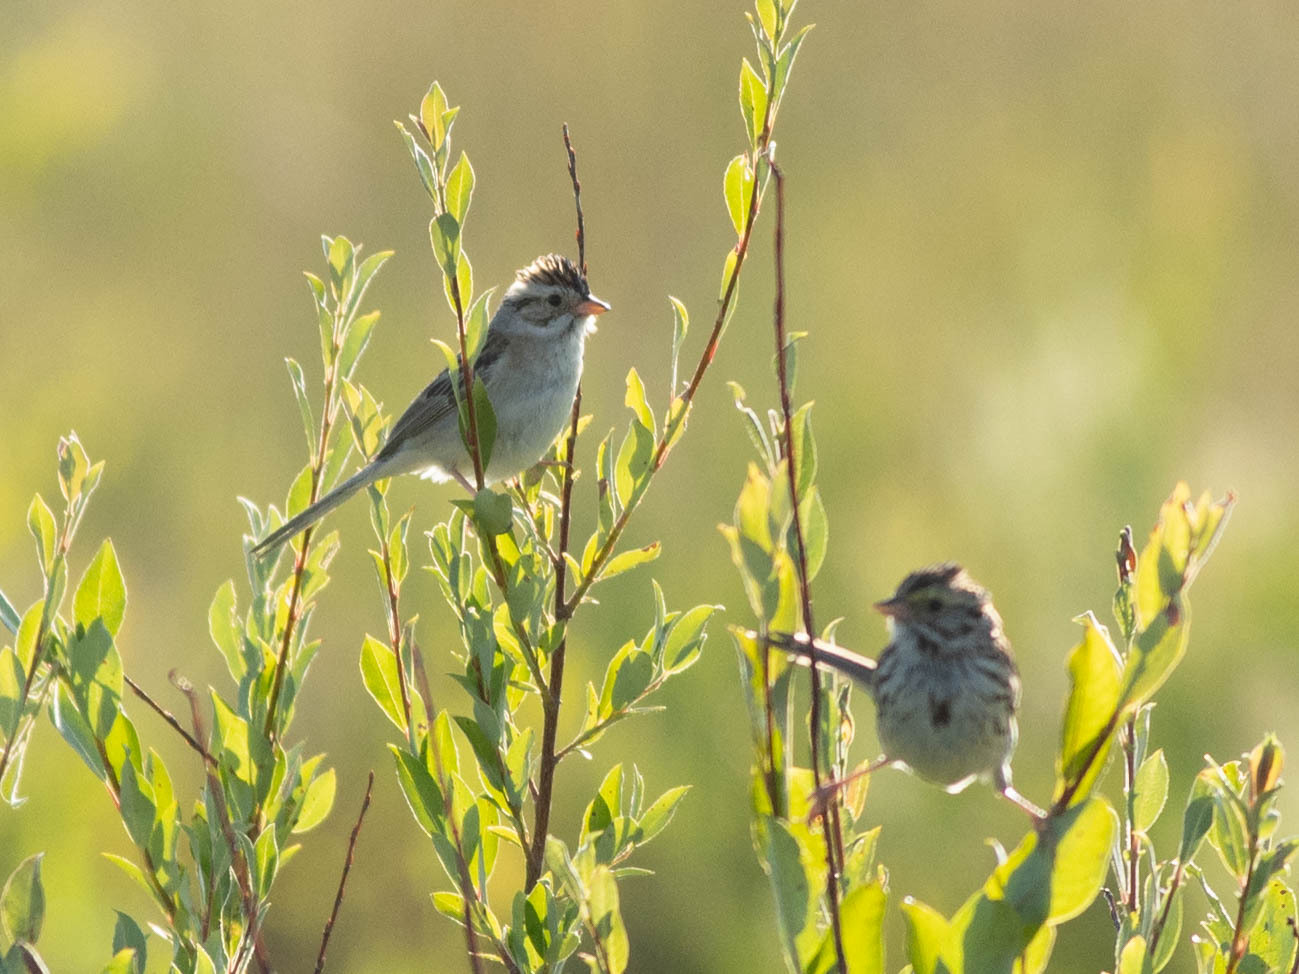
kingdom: Animalia
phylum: Chordata
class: Aves
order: Passeriformes
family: Passerellidae
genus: Spizella
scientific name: Spizella pallida
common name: Clay-colored sparrow
